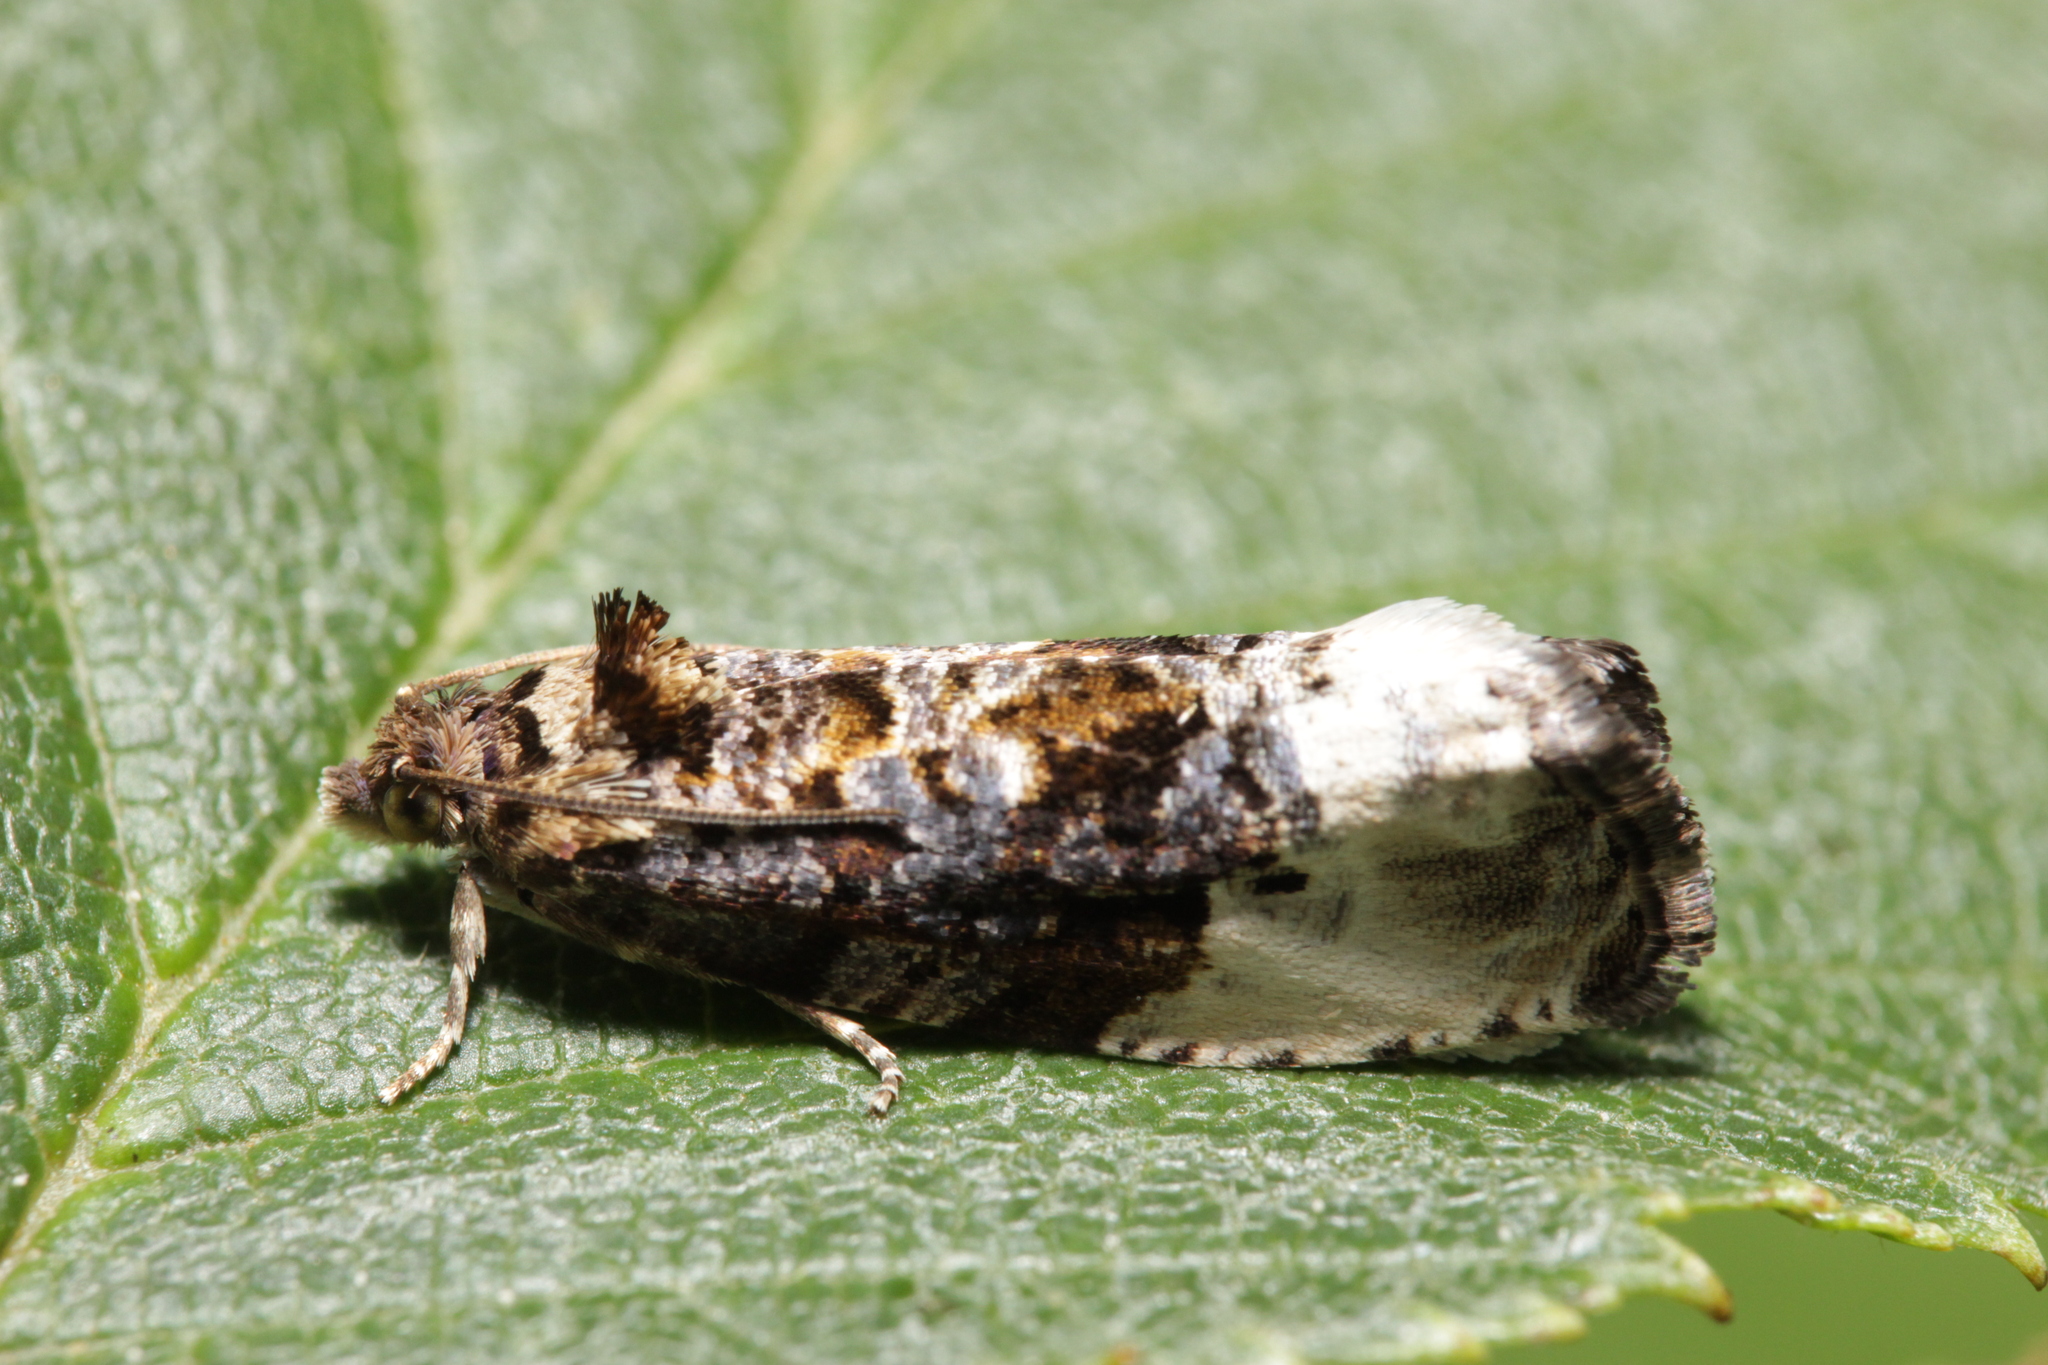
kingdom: Animalia
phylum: Arthropoda
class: Insecta
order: Lepidoptera
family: Tortricidae
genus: Hedya
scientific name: Hedya nubiferana
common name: Marbled orchard tortrix
